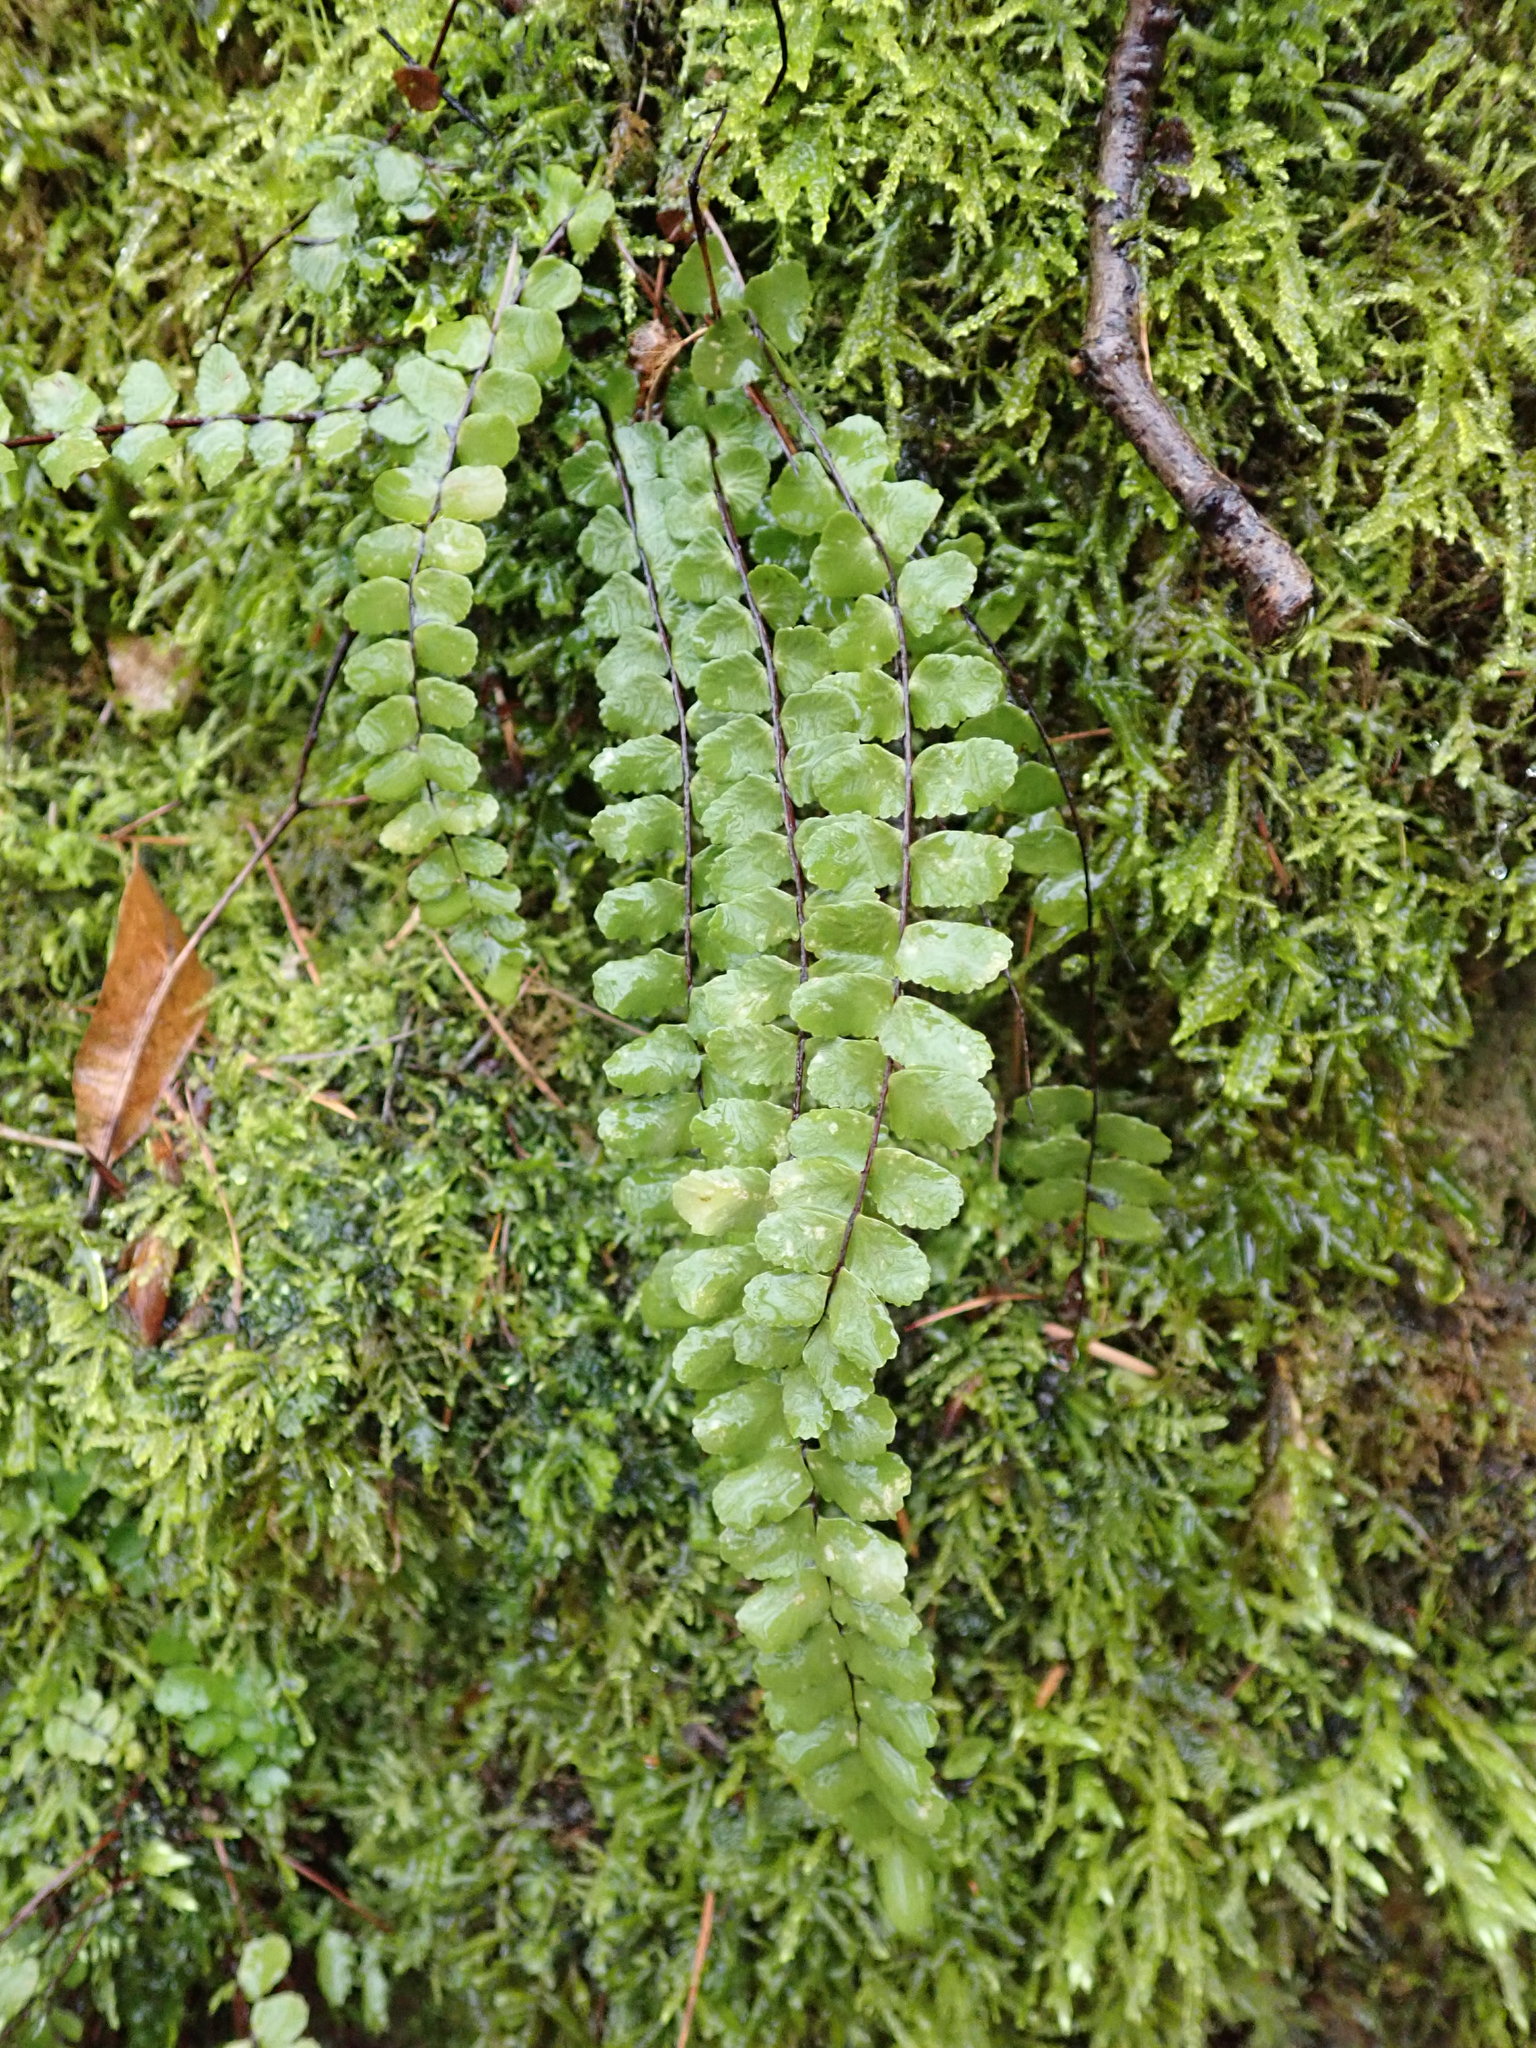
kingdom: Plantae
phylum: Tracheophyta
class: Polypodiopsida
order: Polypodiales
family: Aspleniaceae
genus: Asplenium
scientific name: Asplenium trichomanes
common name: Maidenhair spleenwort
